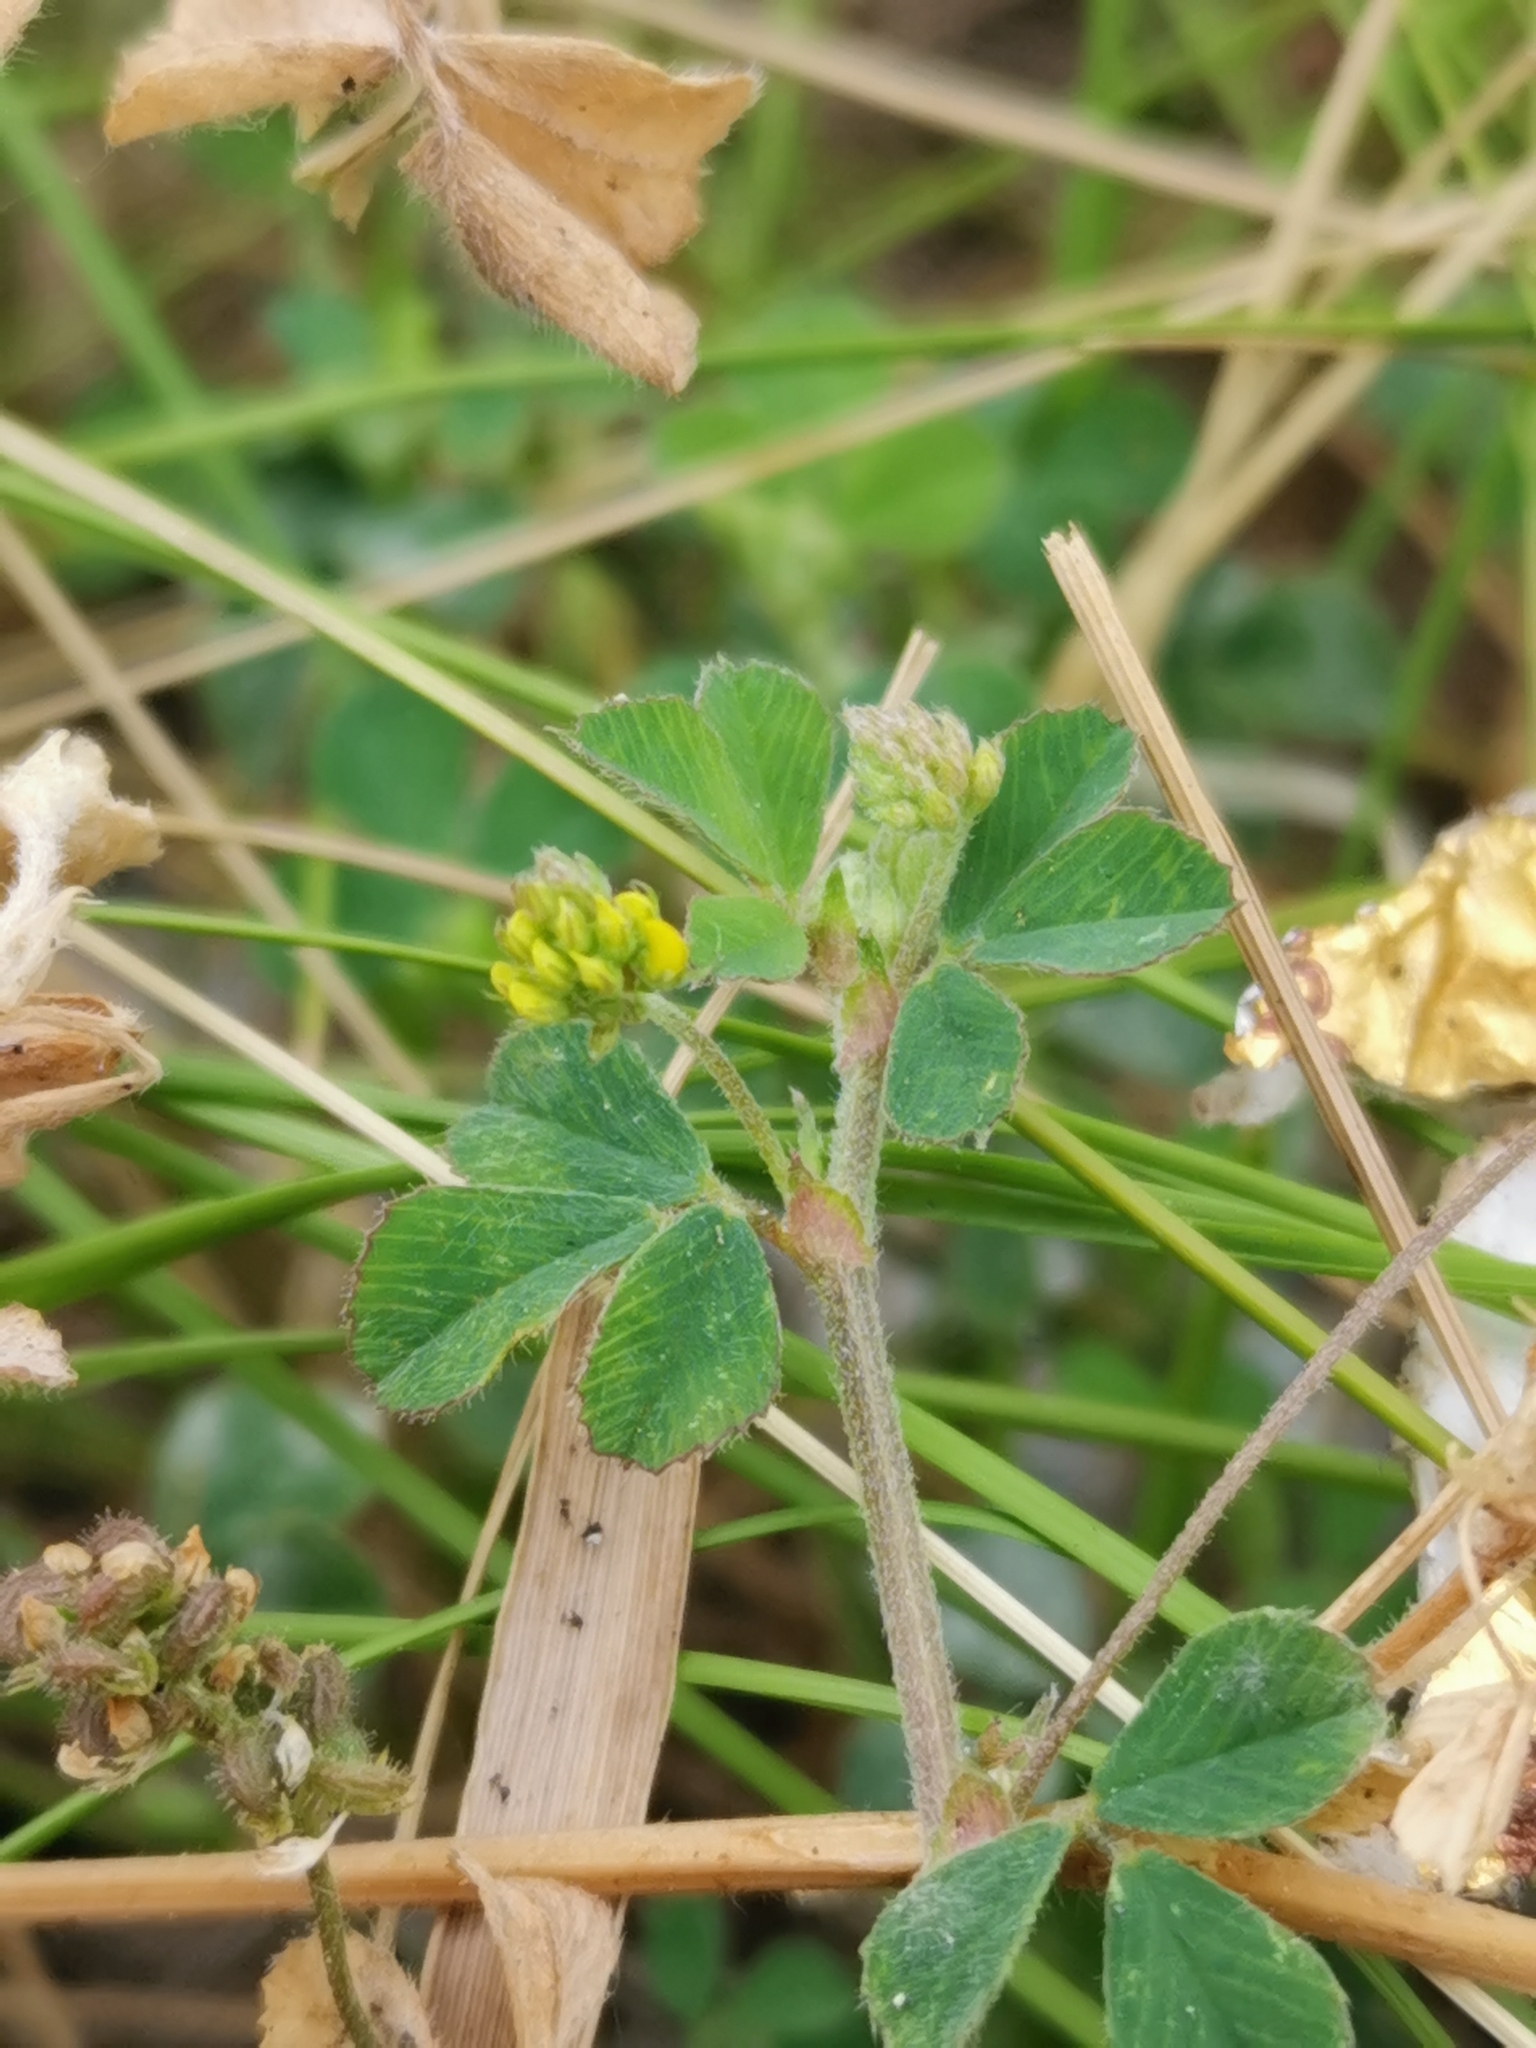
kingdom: Plantae
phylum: Tracheophyta
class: Magnoliopsida
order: Fabales
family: Fabaceae
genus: Medicago
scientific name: Medicago lupulina
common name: Black medick
